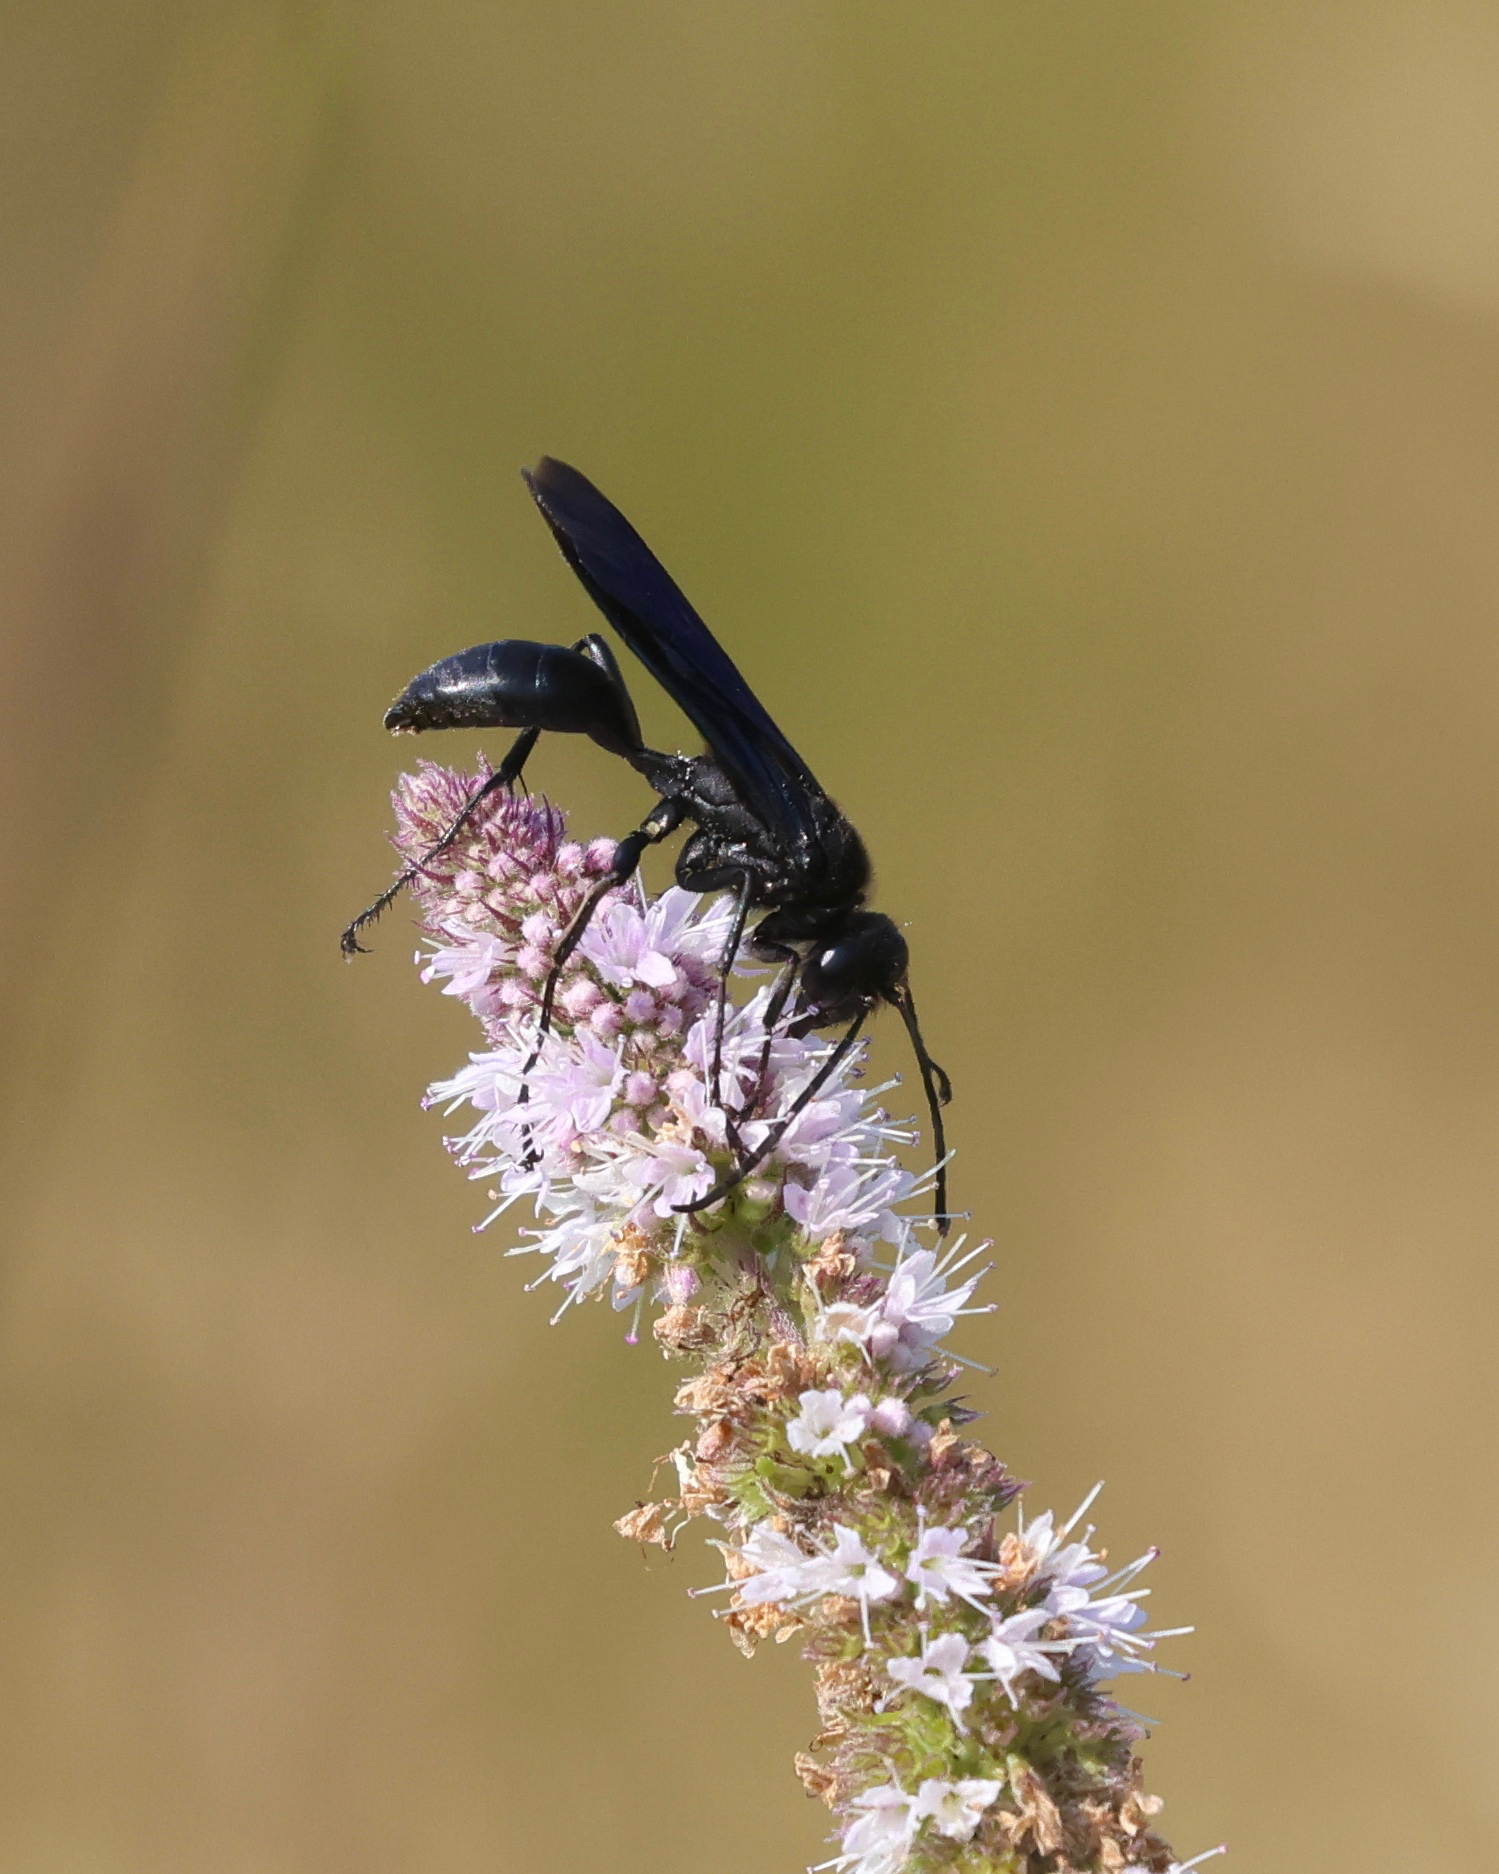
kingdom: Animalia
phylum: Arthropoda
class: Insecta
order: Hymenoptera
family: Sphecidae
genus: Sphex
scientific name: Sphex pensylvanicus
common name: Great black digger wasp
